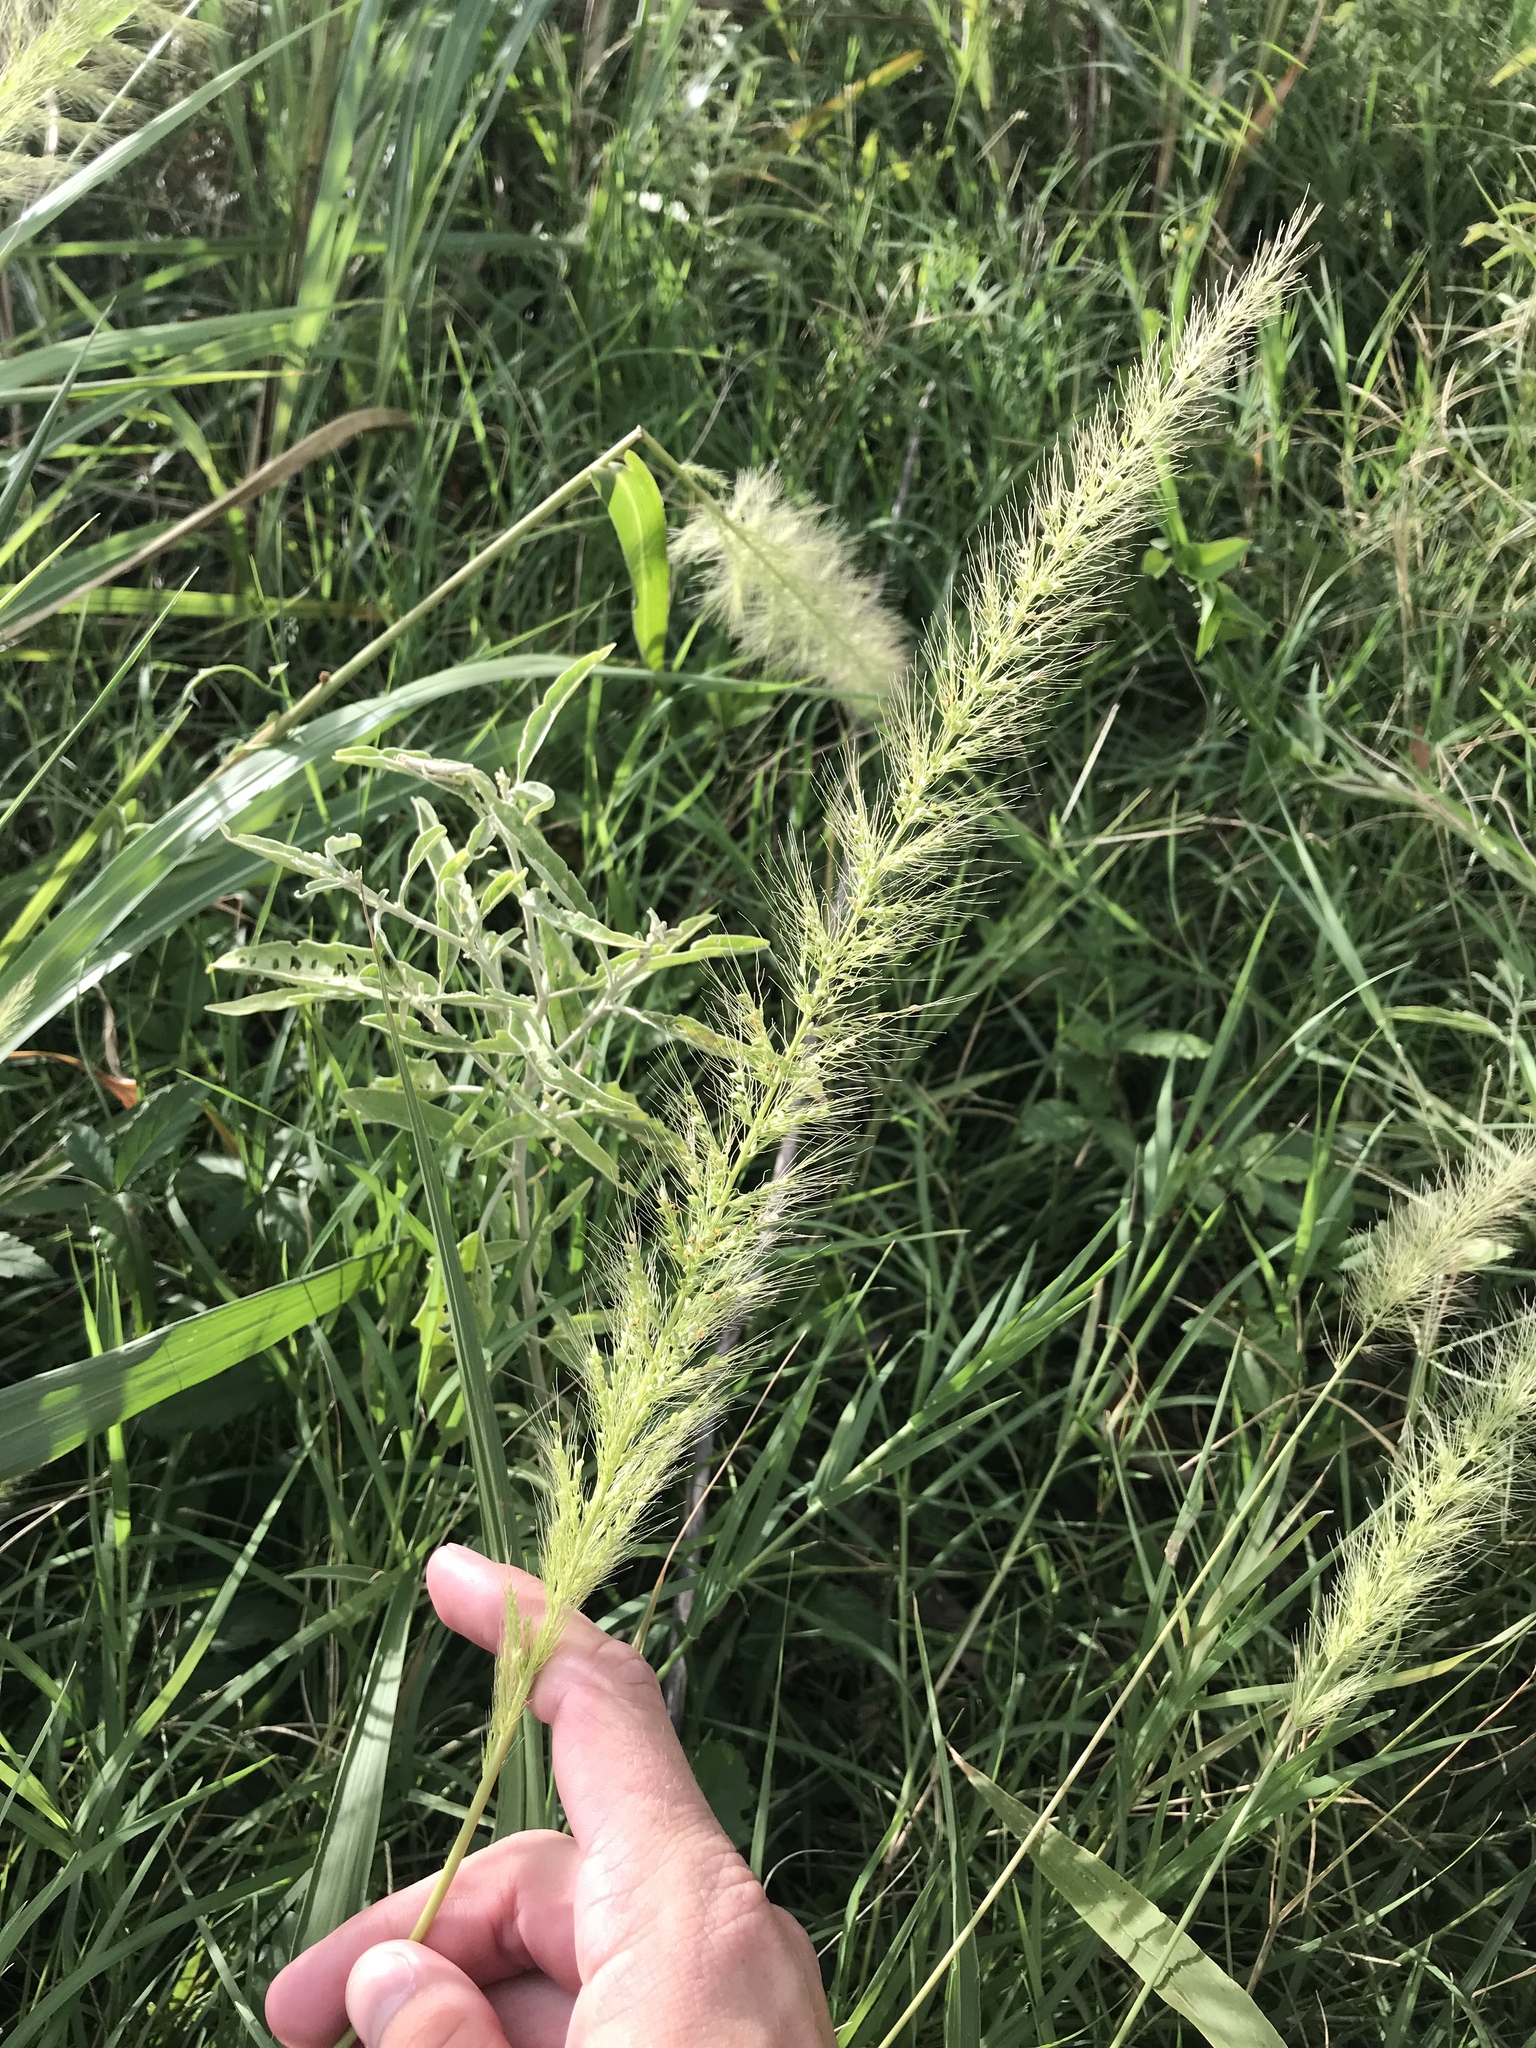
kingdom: Plantae
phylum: Tracheophyta
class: Liliopsida
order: Poales
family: Poaceae
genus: Setaria
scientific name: Setaria scheelei
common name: Southwestern bristle grass
